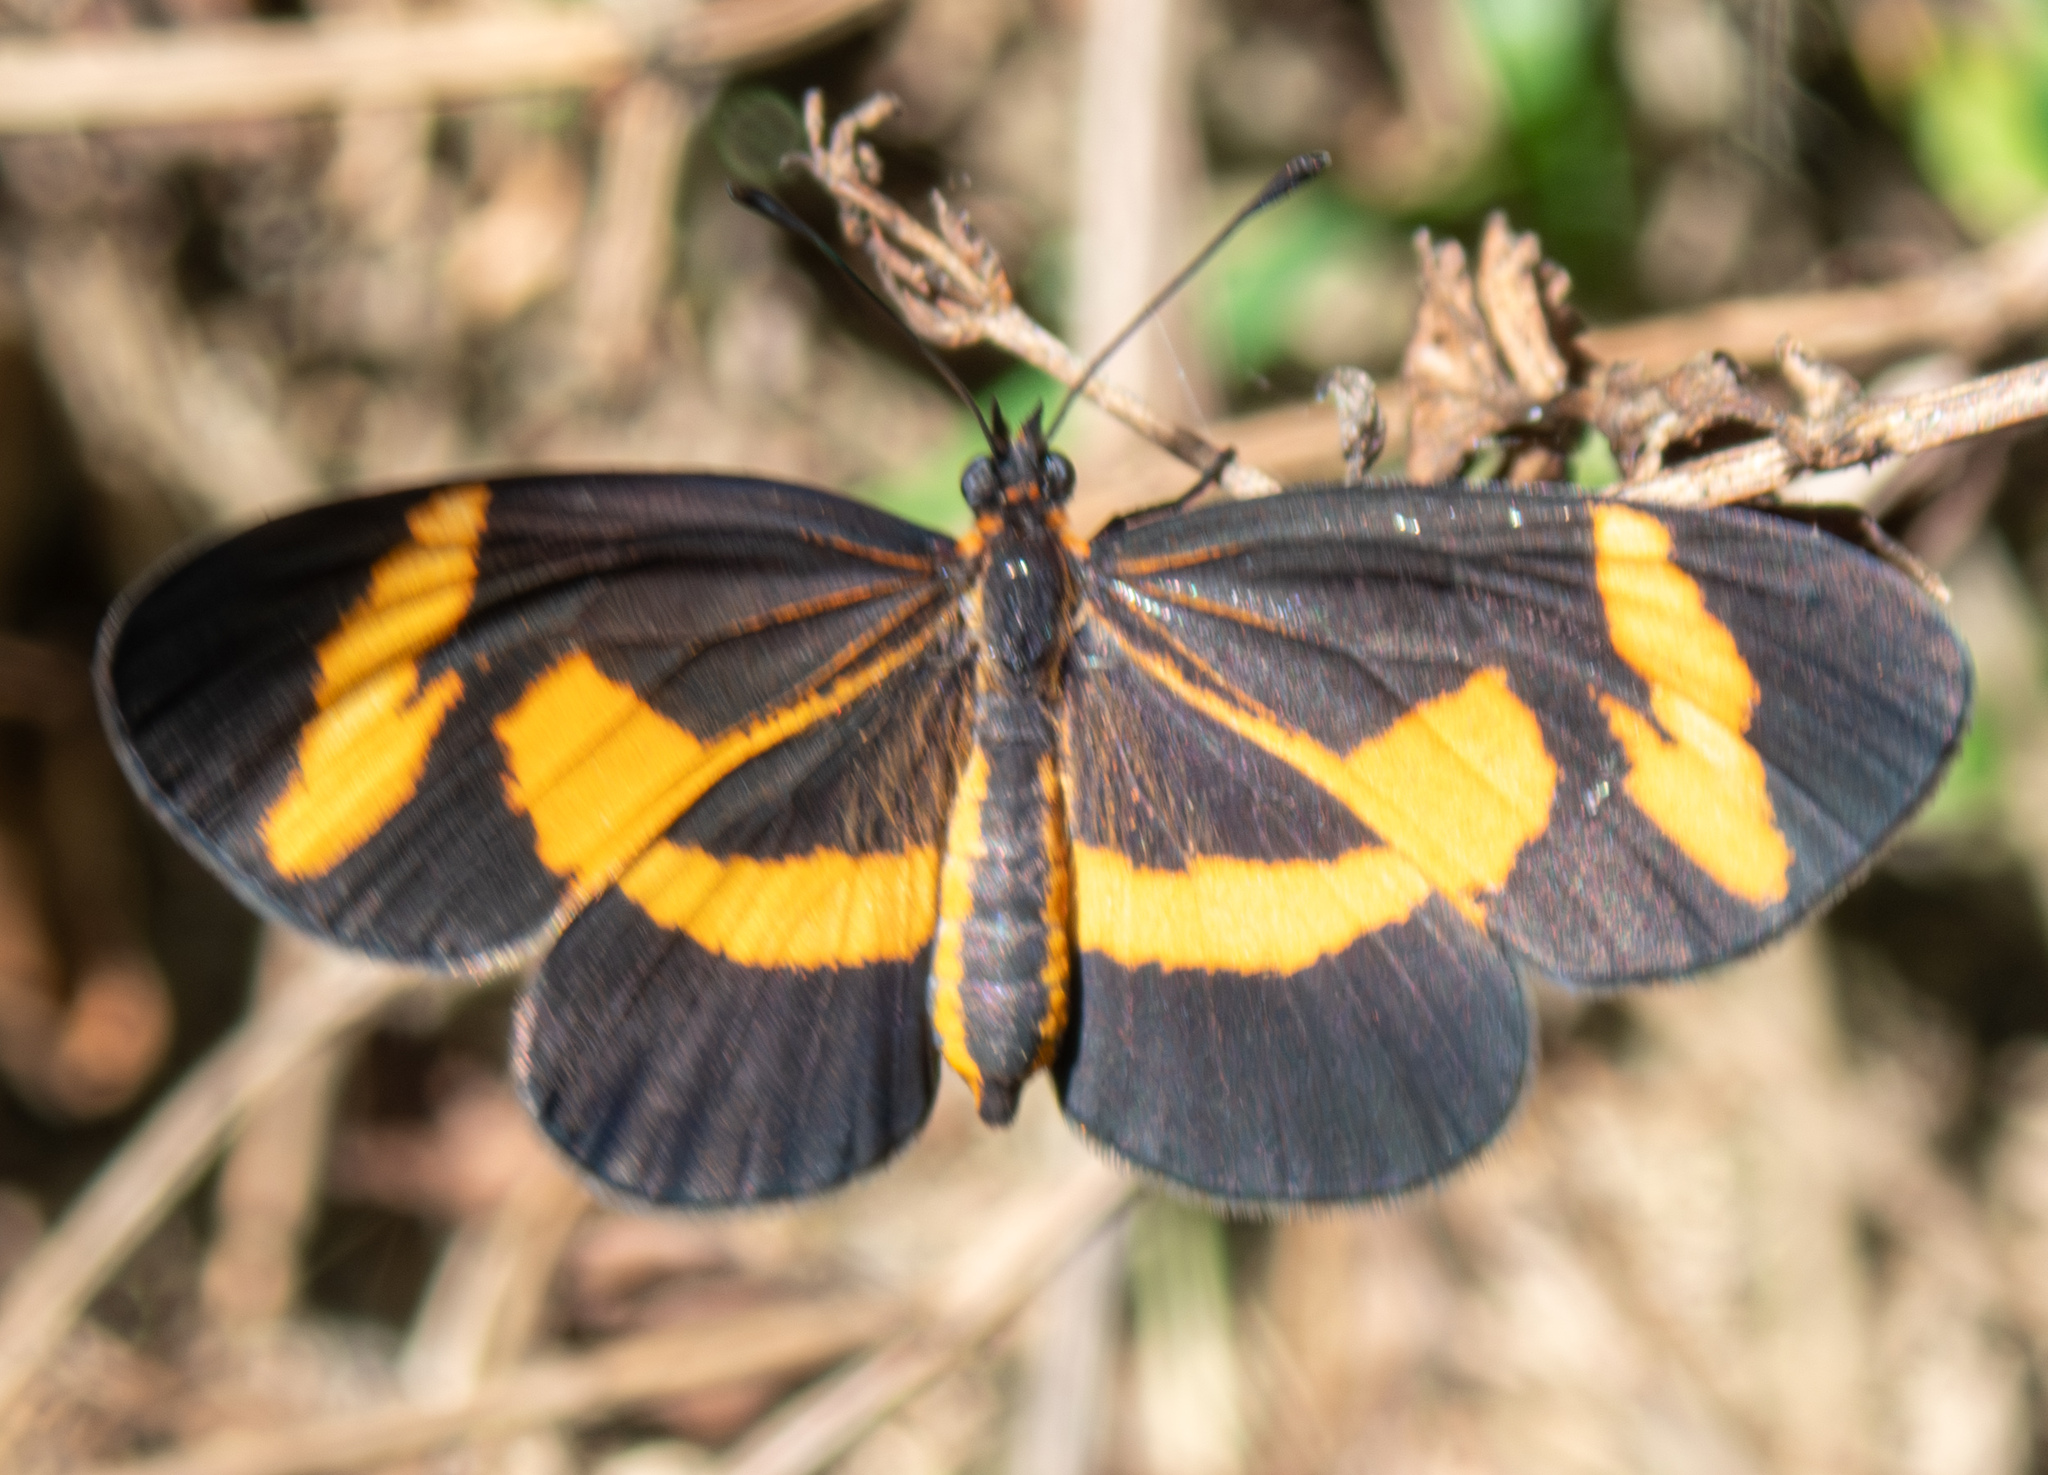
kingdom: Animalia
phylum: Arthropoda
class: Insecta
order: Lepidoptera
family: Nymphalidae
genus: Microtia
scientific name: Microtia elva
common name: Elf
